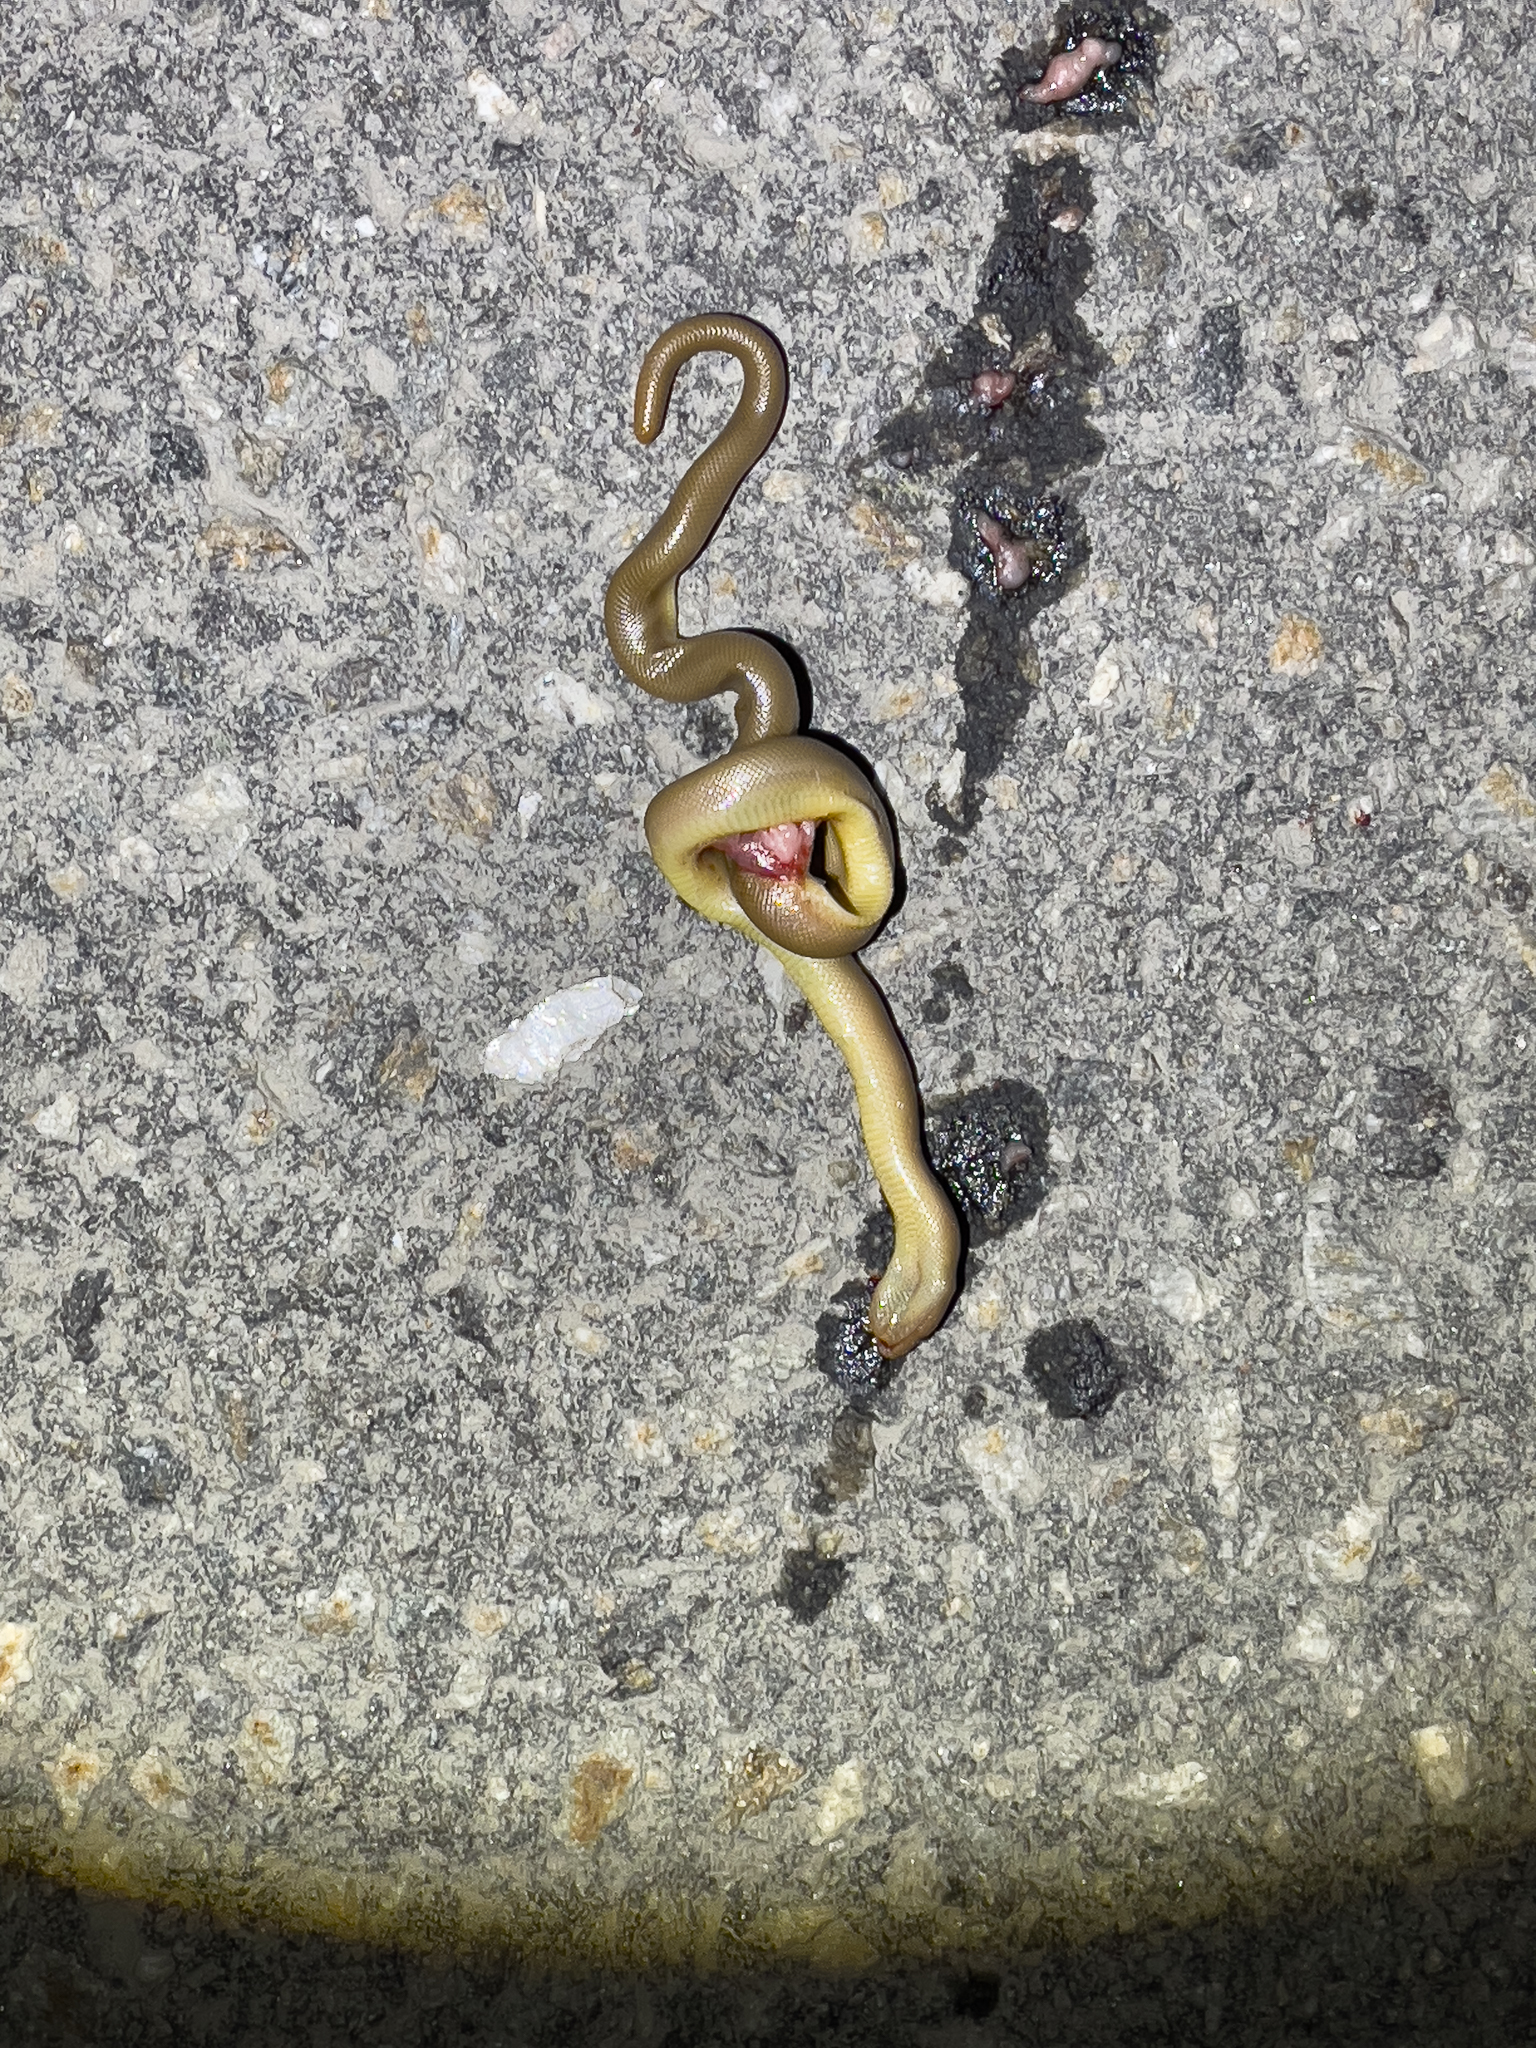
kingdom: Animalia
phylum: Chordata
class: Squamata
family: Boidae
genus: Charina
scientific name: Charina bottae
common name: Northern rubber boa
